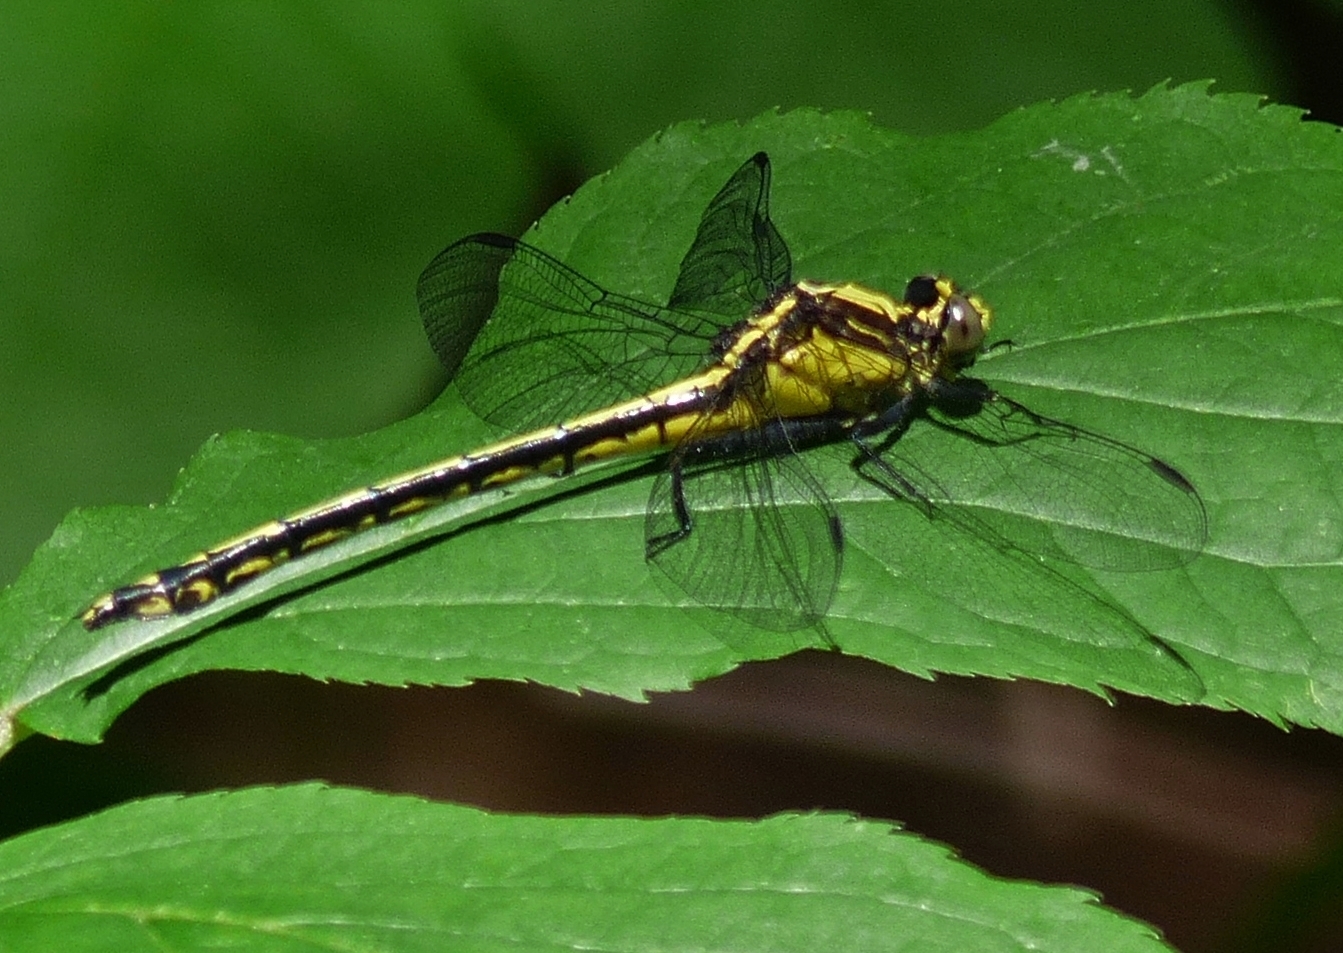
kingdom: Animalia
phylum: Arthropoda
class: Insecta
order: Odonata
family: Gomphidae
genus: Dromogomphus
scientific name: Dromogomphus spinosus
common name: Black-shouldered spinyleg
